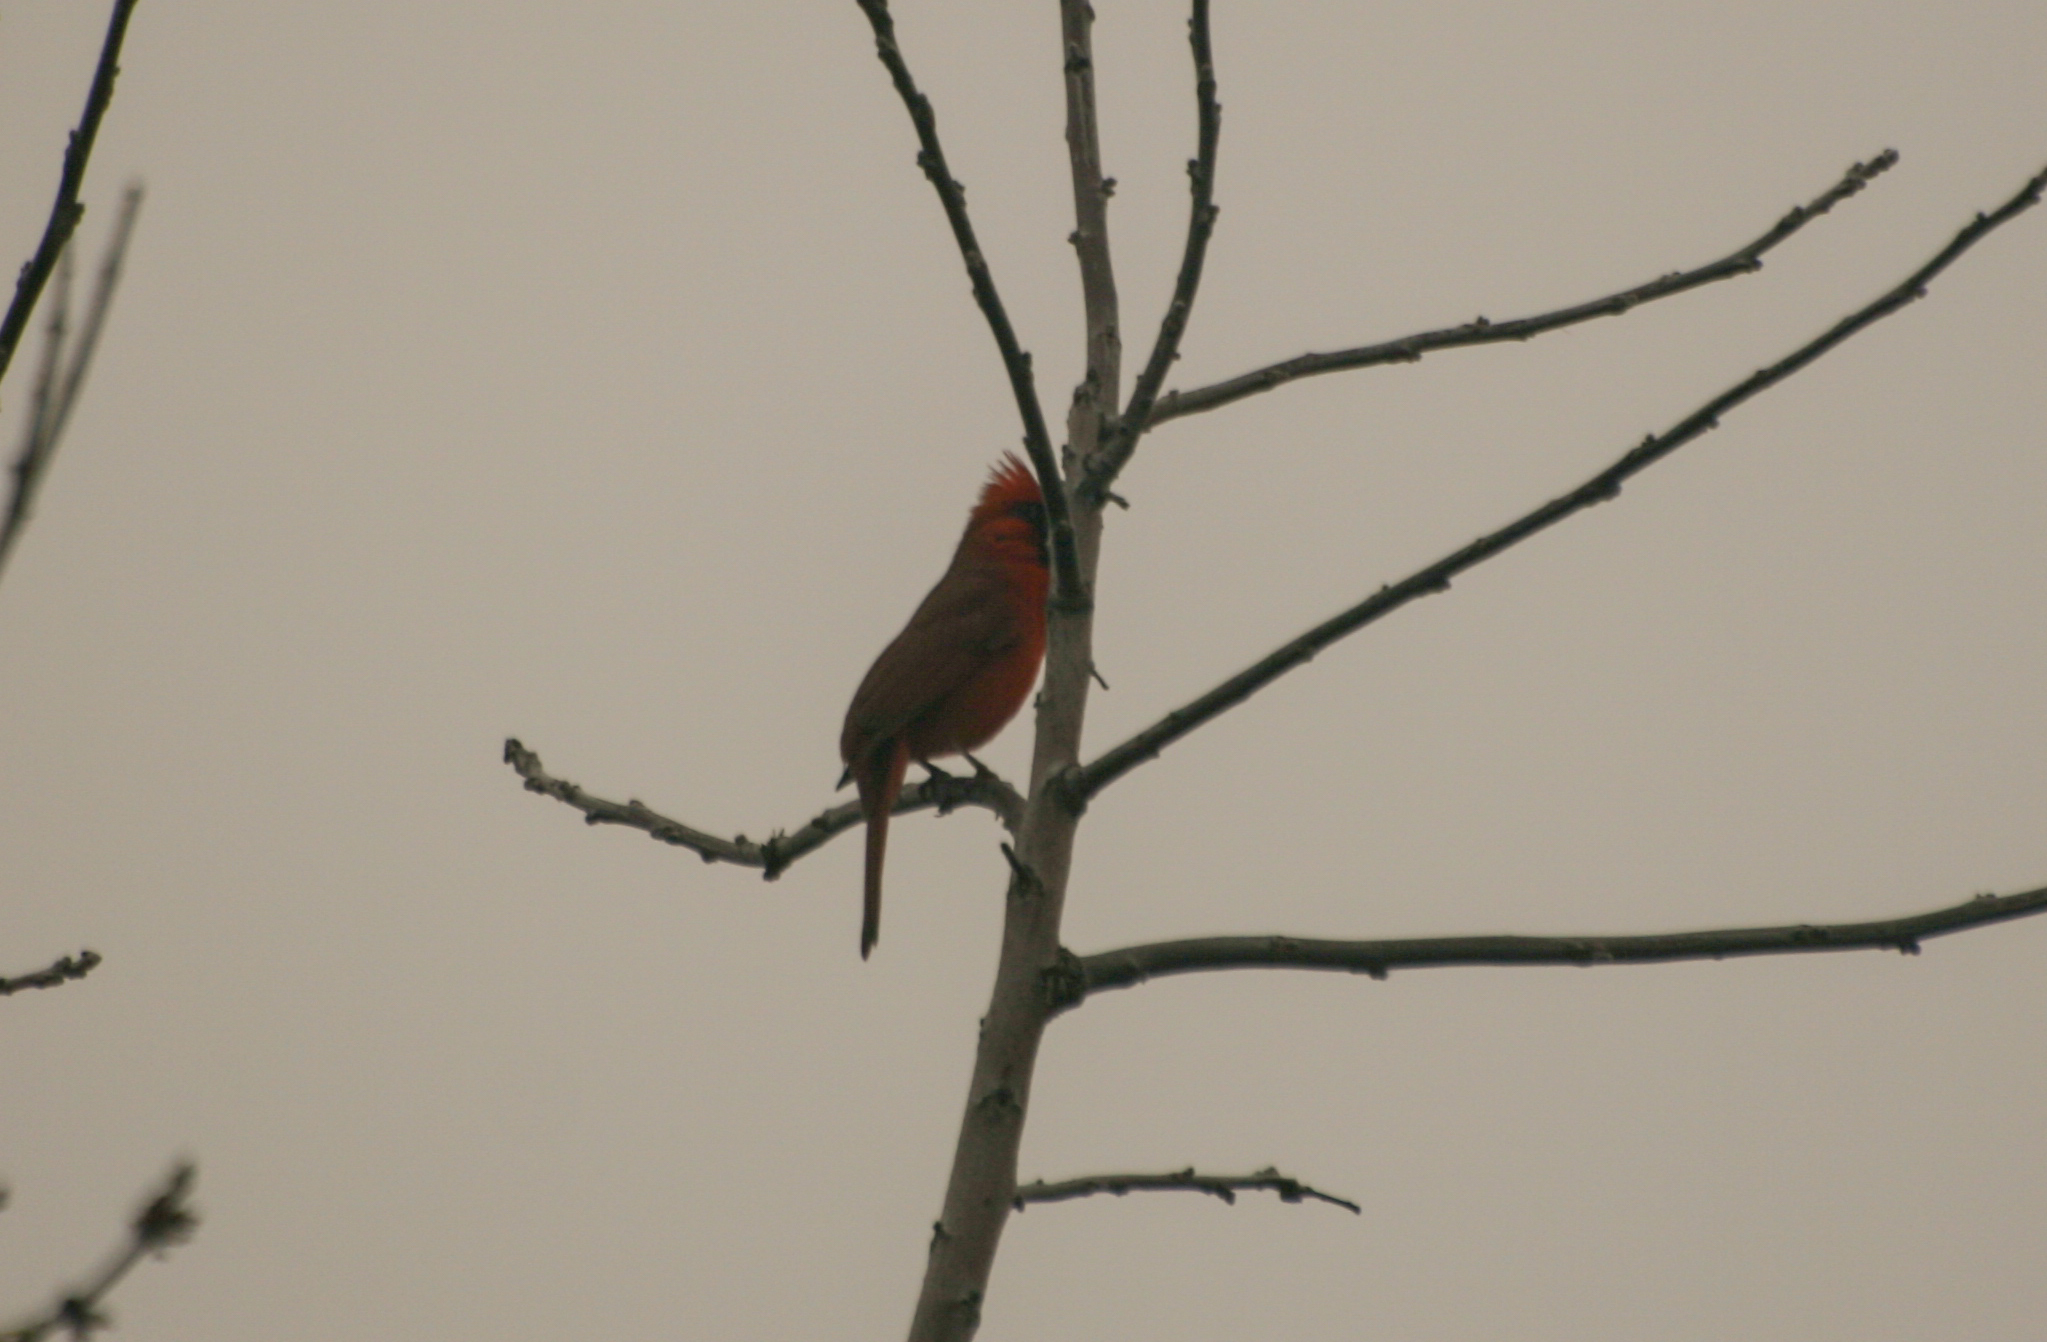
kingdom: Animalia
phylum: Chordata
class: Aves
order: Passeriformes
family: Cardinalidae
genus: Cardinalis
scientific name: Cardinalis cardinalis
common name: Northern cardinal
